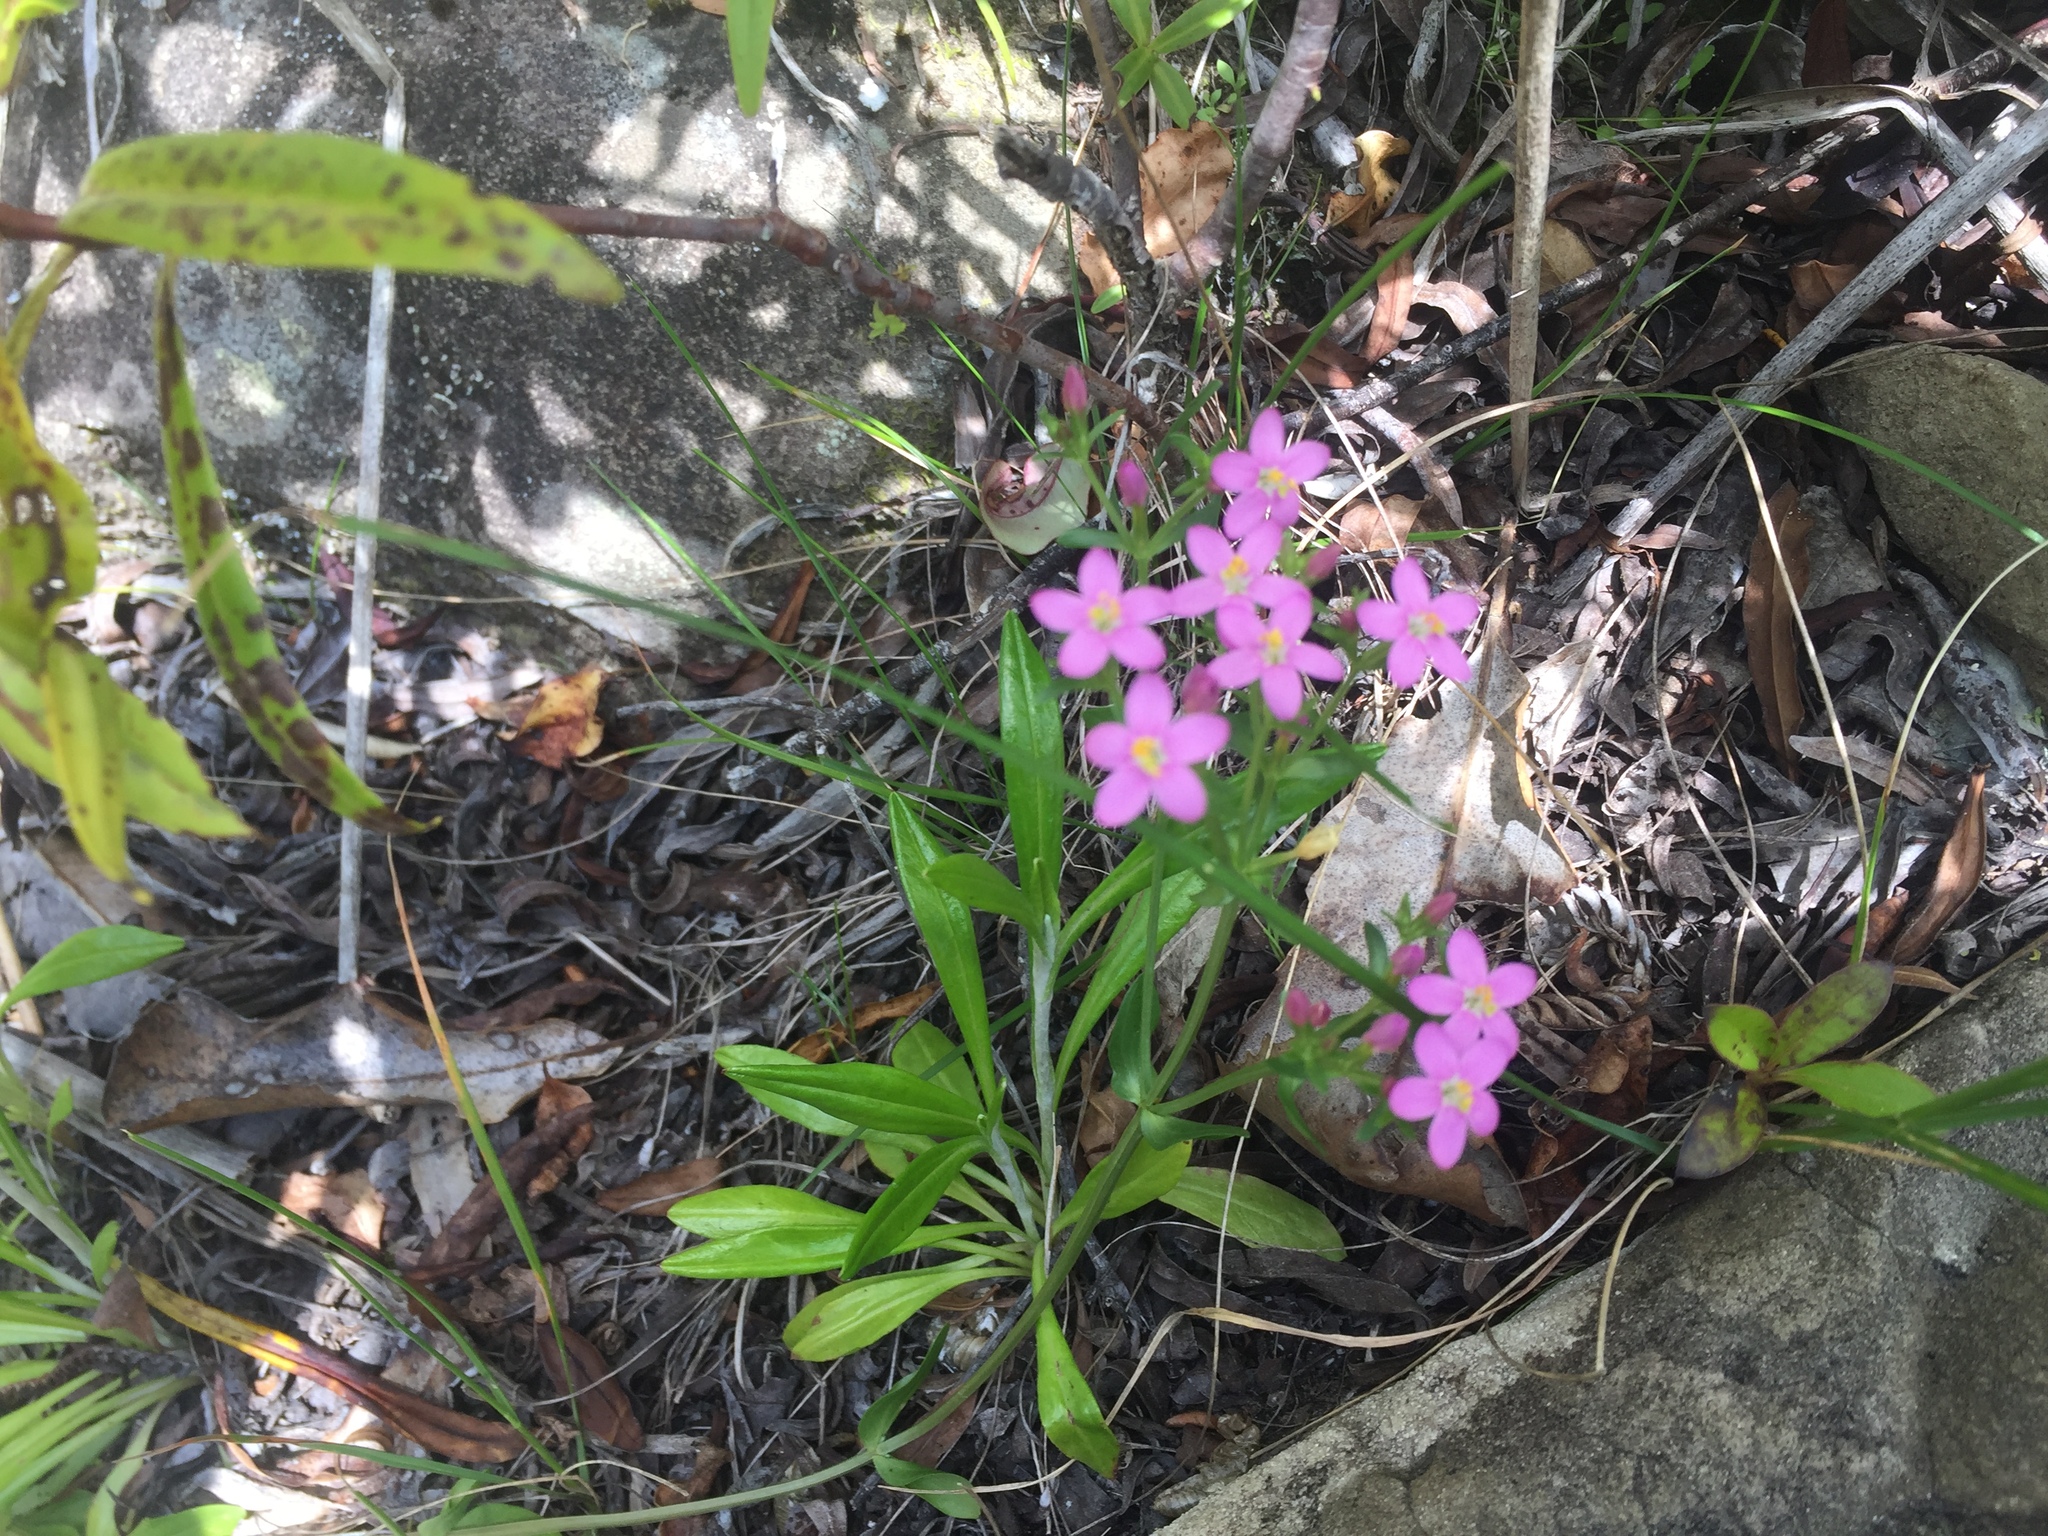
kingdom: Plantae
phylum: Tracheophyta
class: Magnoliopsida
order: Gentianales
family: Gentianaceae
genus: Centaurium
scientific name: Centaurium erythraea
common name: Common centaury
